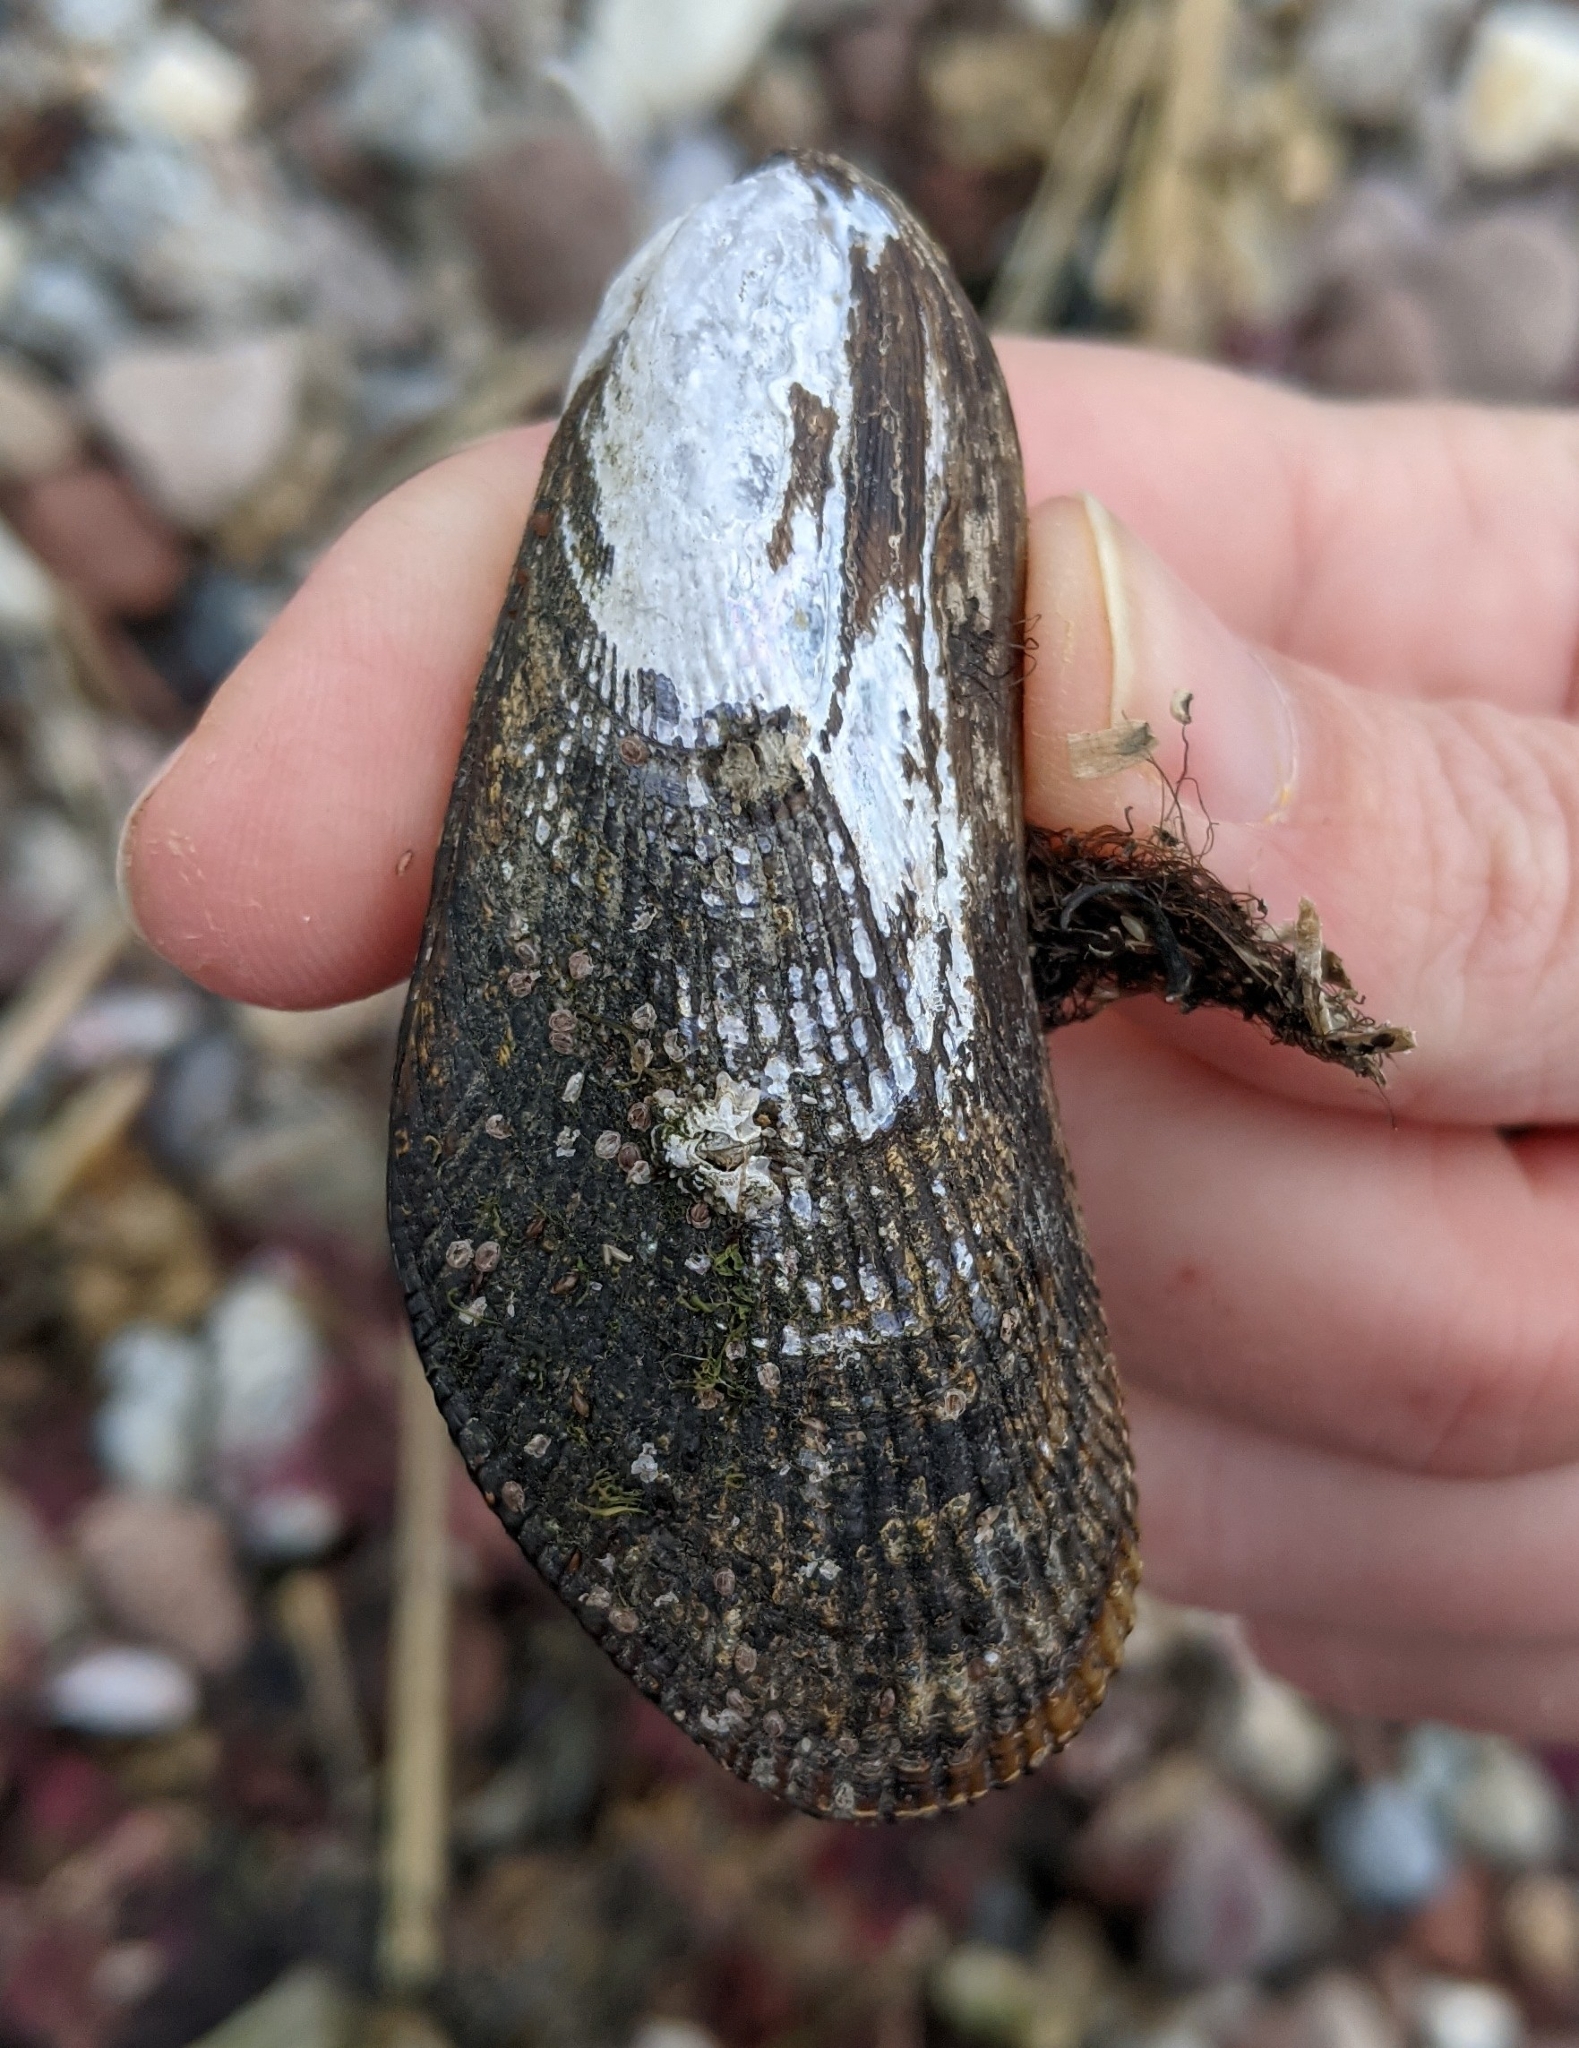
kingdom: Animalia
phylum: Mollusca
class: Bivalvia
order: Mytilida
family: Mytilidae
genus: Geukensia
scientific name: Geukensia demissa
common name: Ribbed mussel
